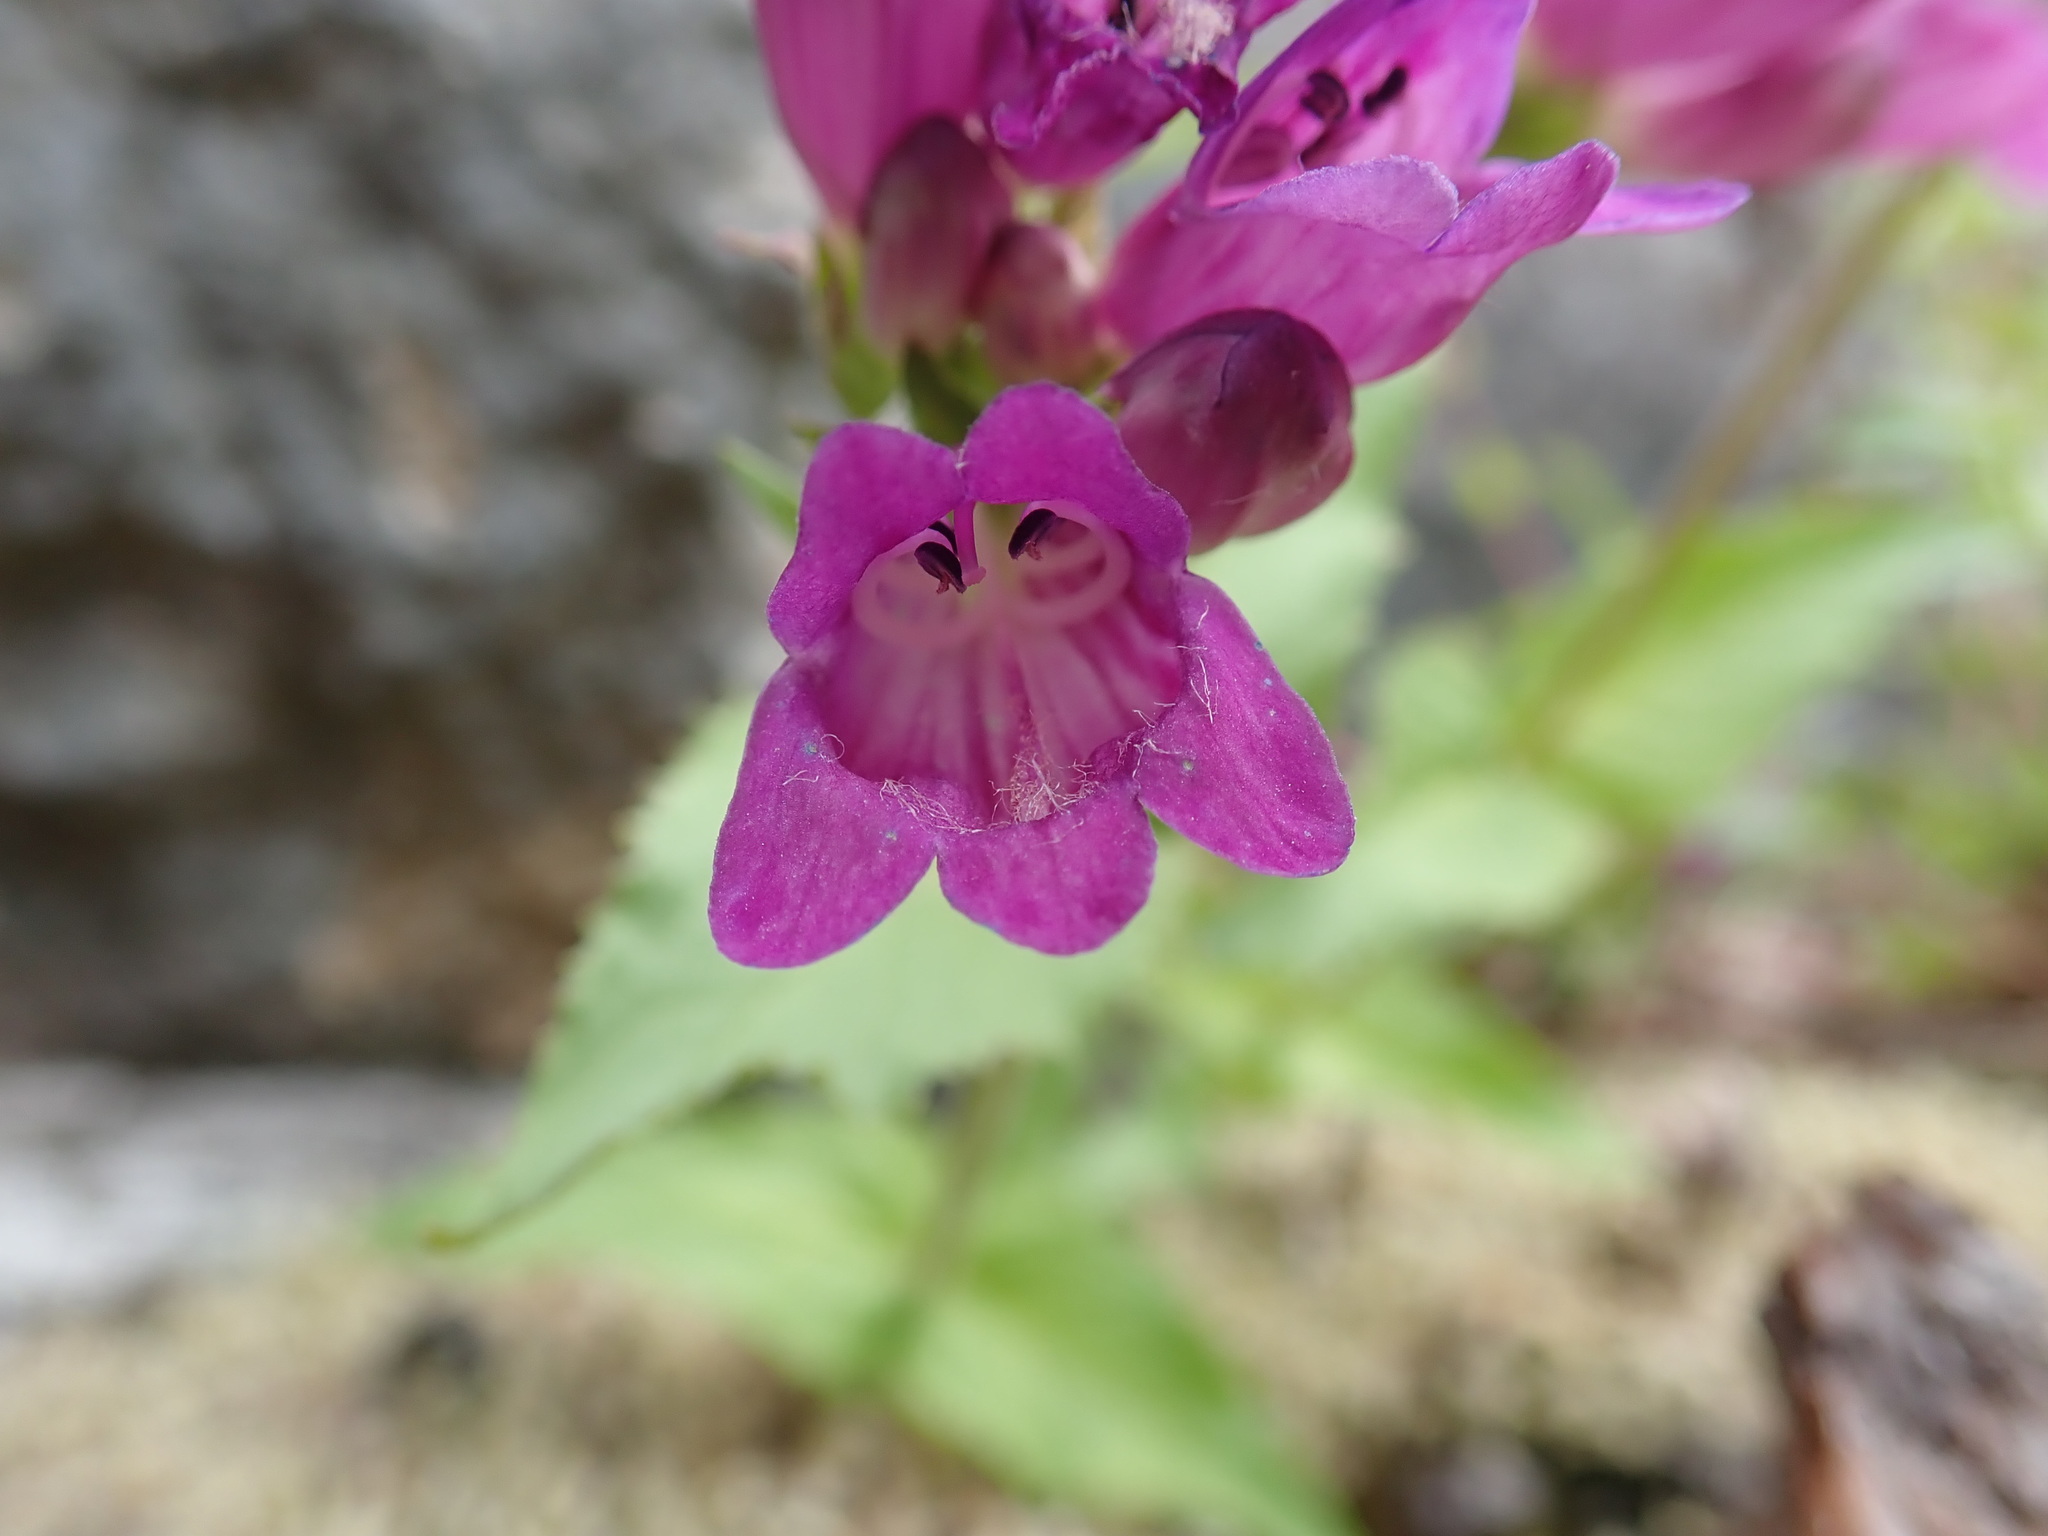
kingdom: Plantae
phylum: Tracheophyta
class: Magnoliopsida
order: Lamiales
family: Plantaginaceae
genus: Penstemon
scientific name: Penstemon serrulatus
